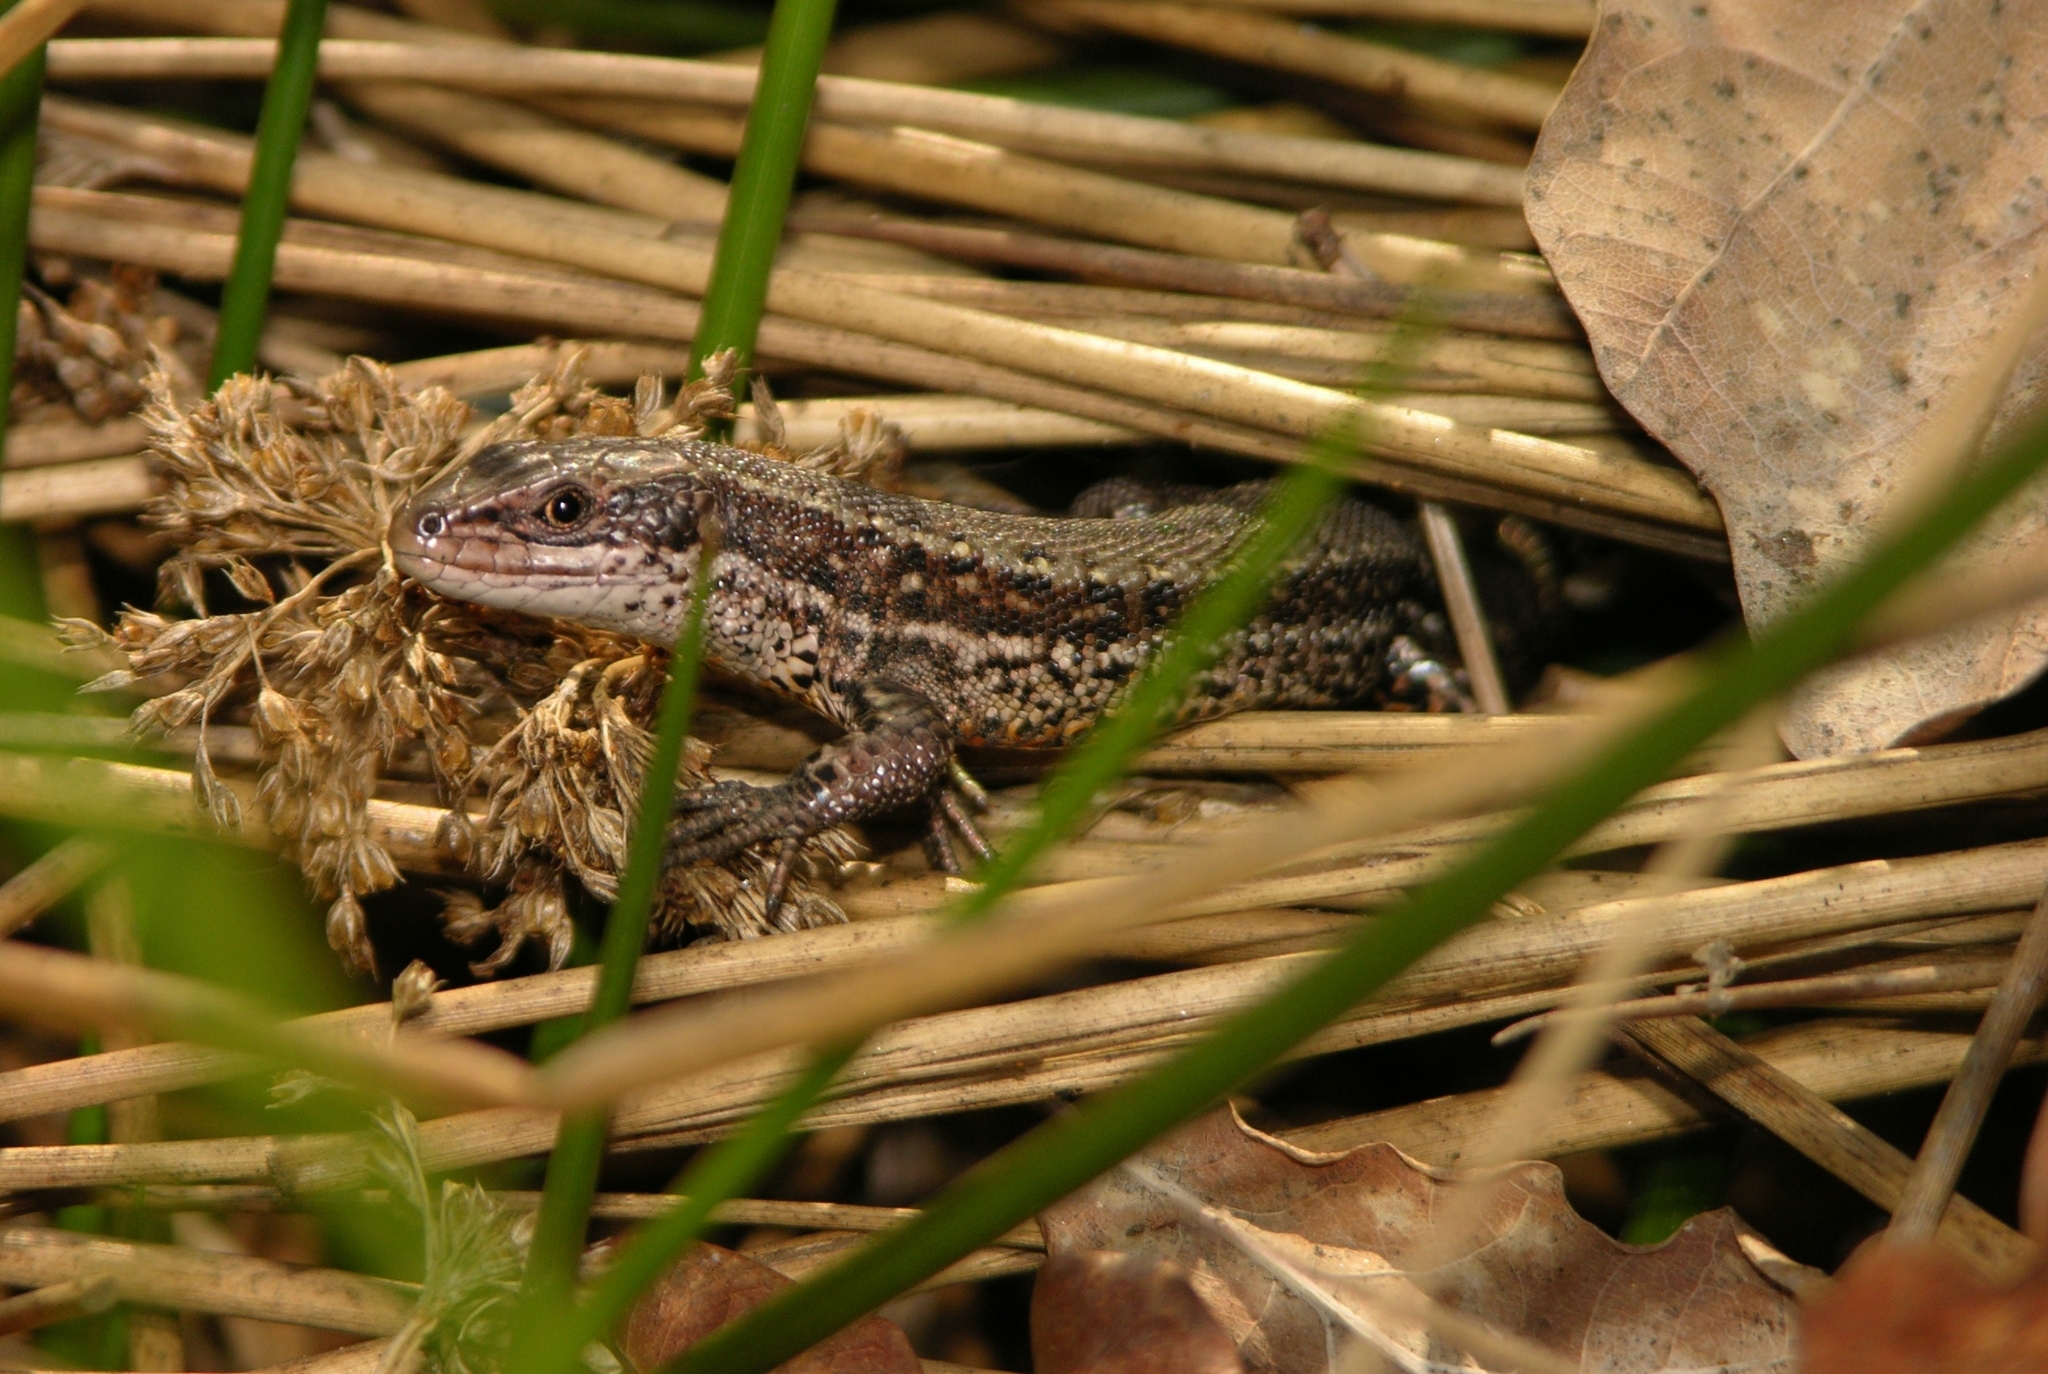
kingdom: Animalia
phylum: Chordata
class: Squamata
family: Lacertidae
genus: Zootoca
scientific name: Zootoca vivipara
